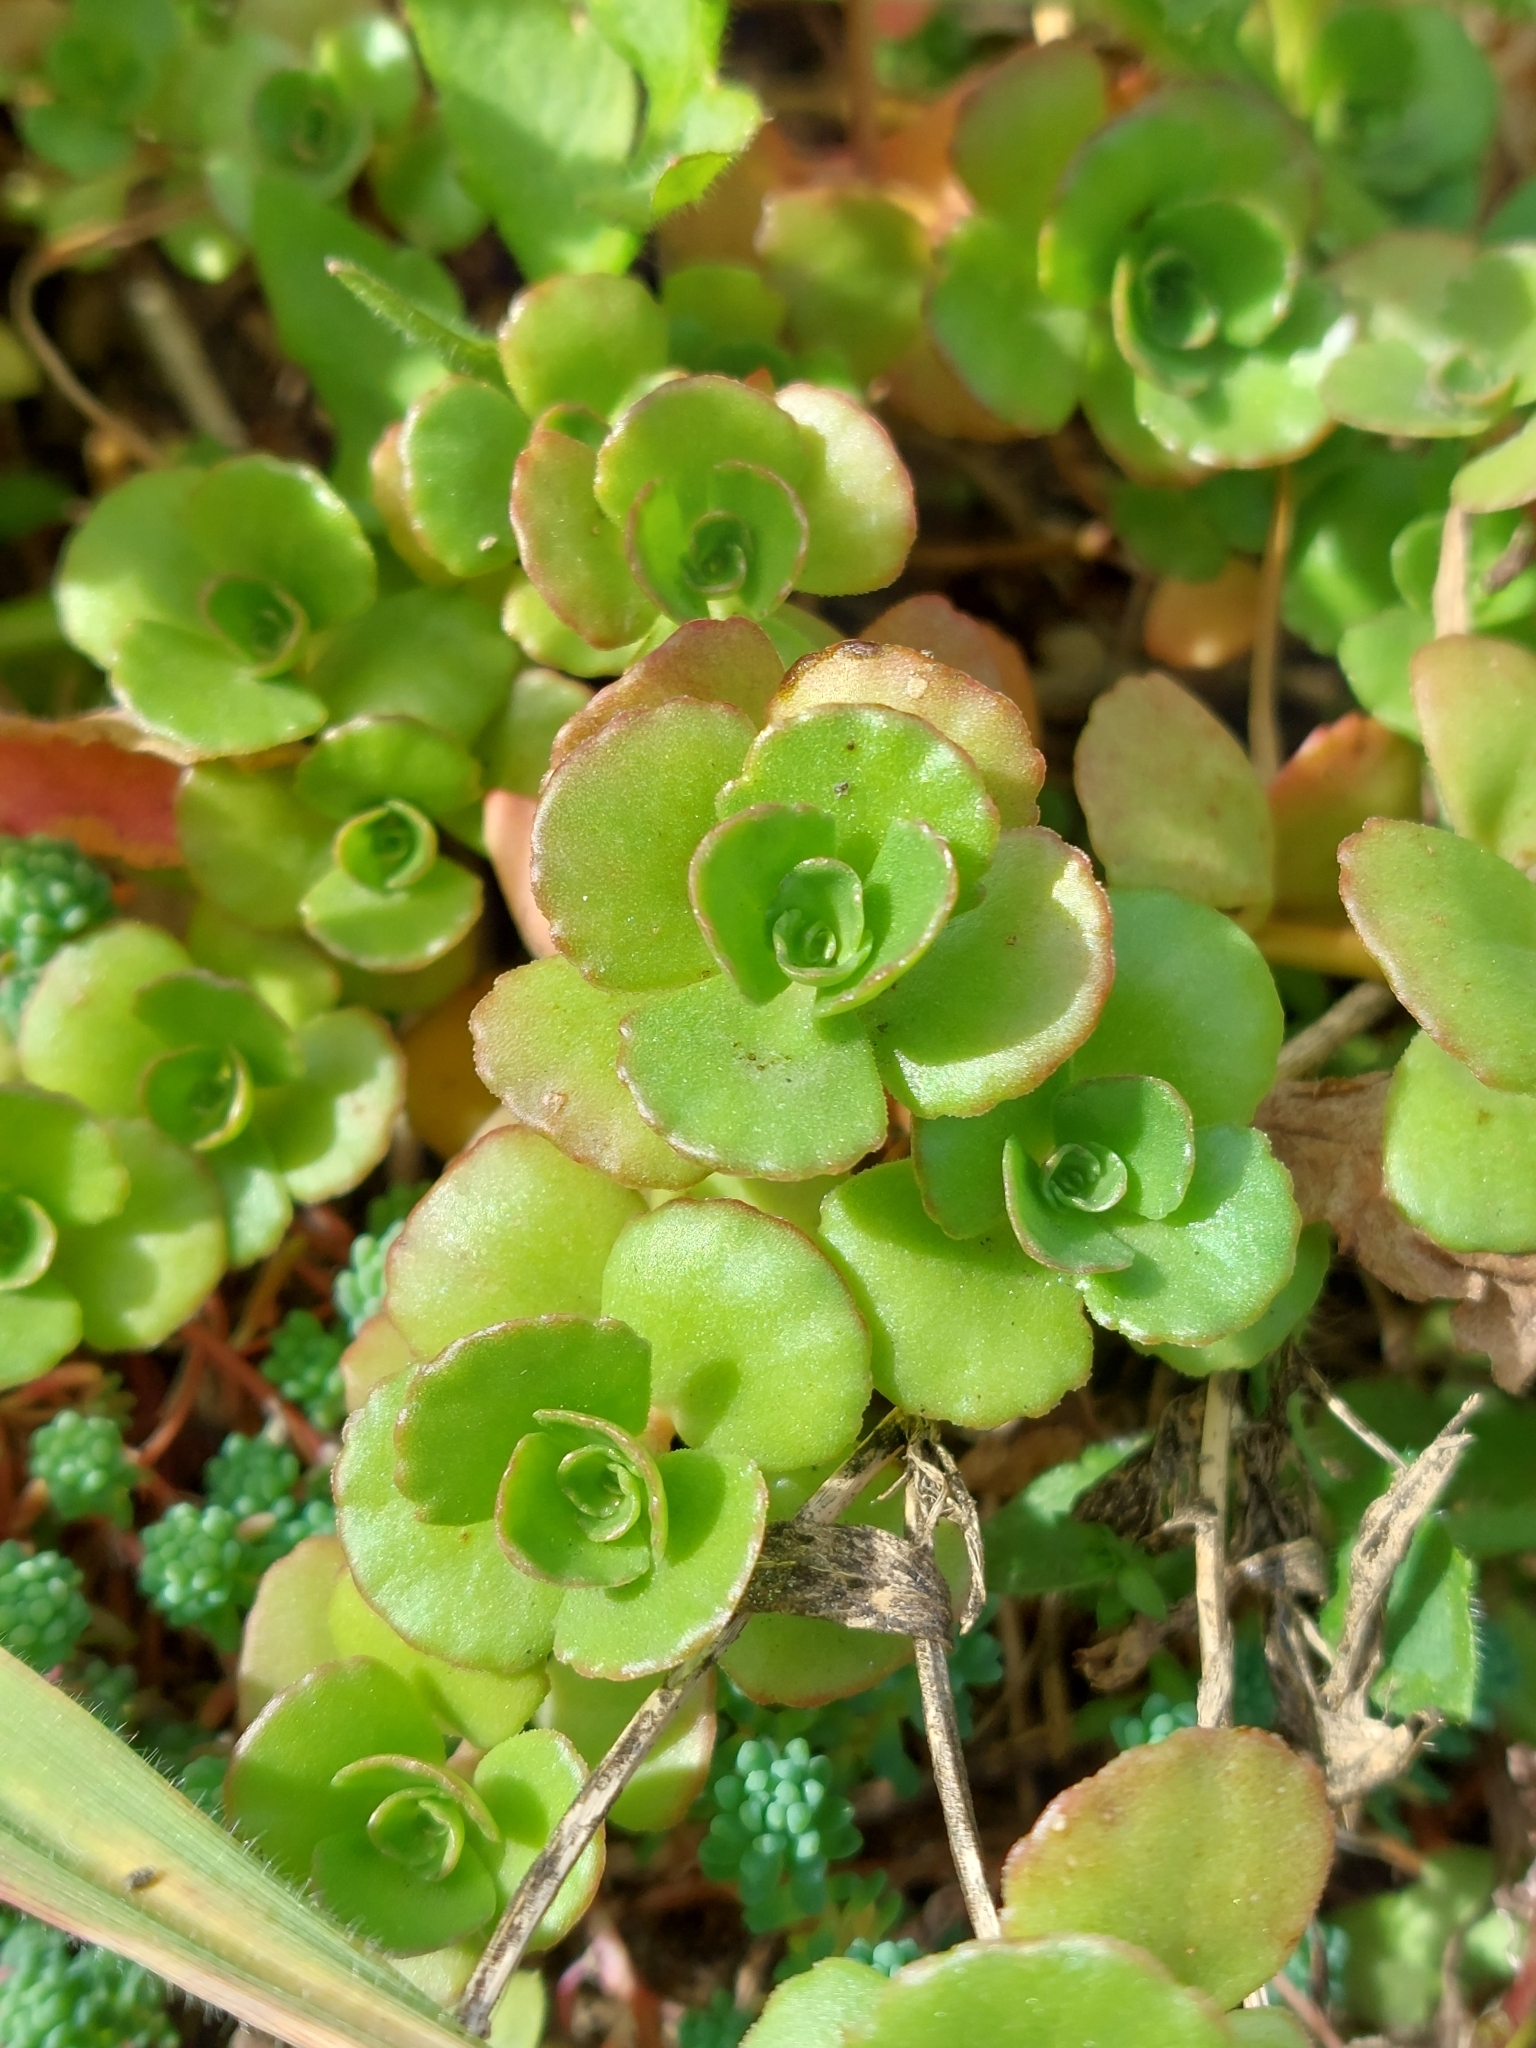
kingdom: Plantae
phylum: Tracheophyta
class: Magnoliopsida
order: Saxifragales
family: Crassulaceae
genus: Phedimus
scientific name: Phedimus spurius
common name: Caucasian stonecrop
